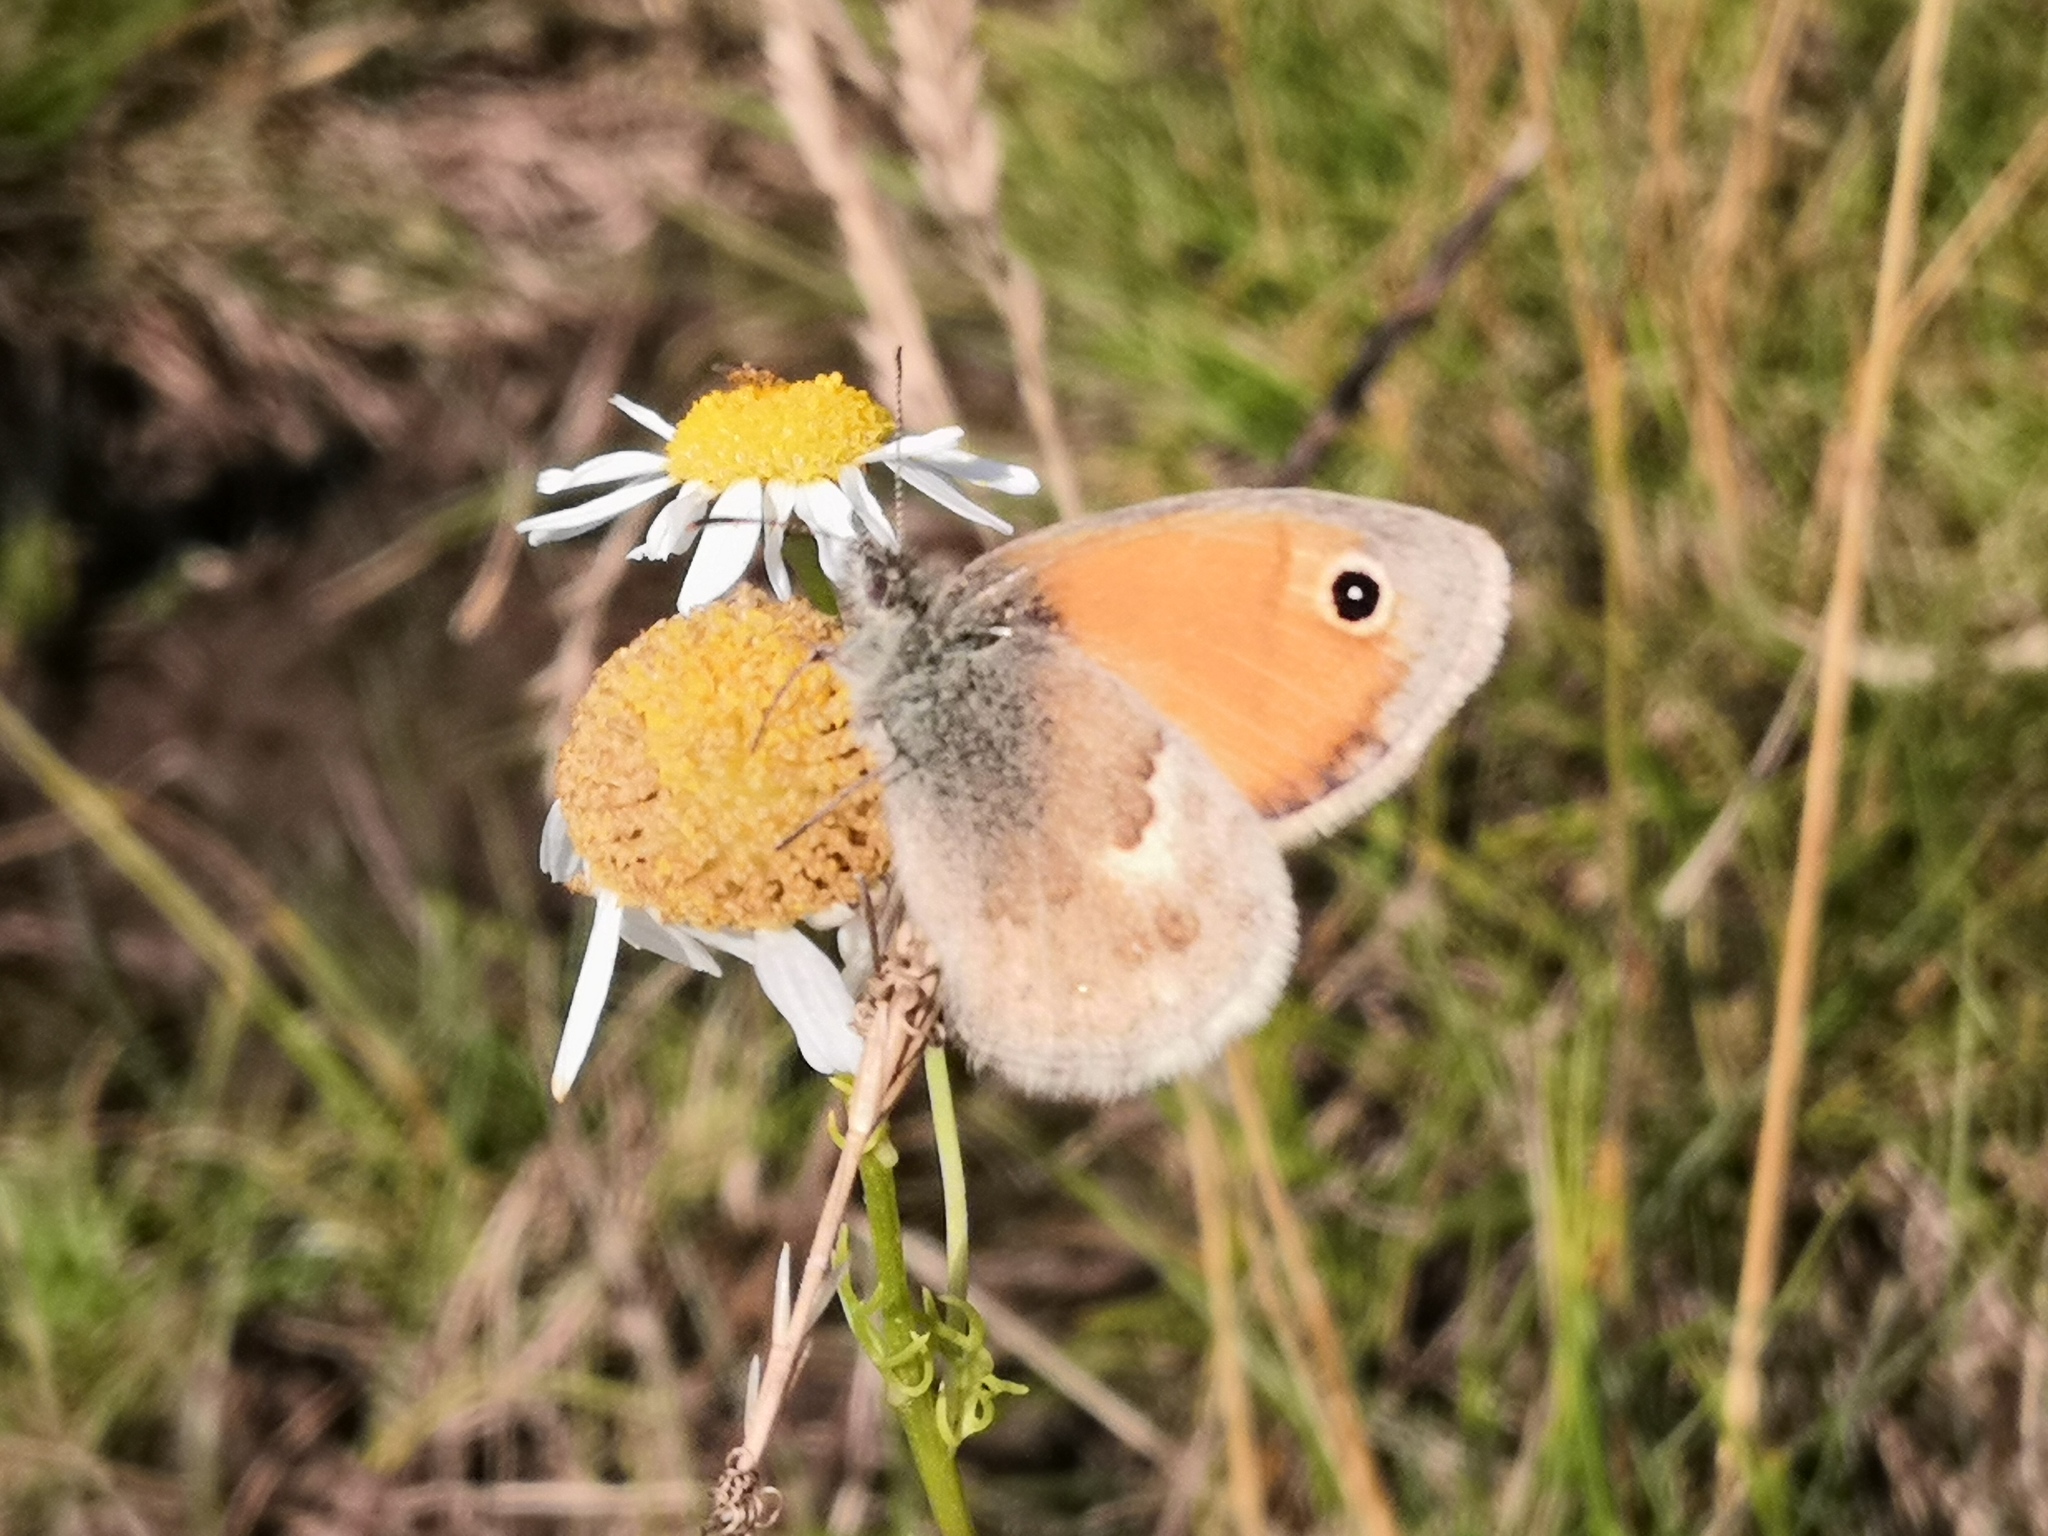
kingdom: Animalia
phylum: Arthropoda
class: Insecta
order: Lepidoptera
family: Nymphalidae
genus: Coenonympha
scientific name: Coenonympha pamphilus
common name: Small heath
